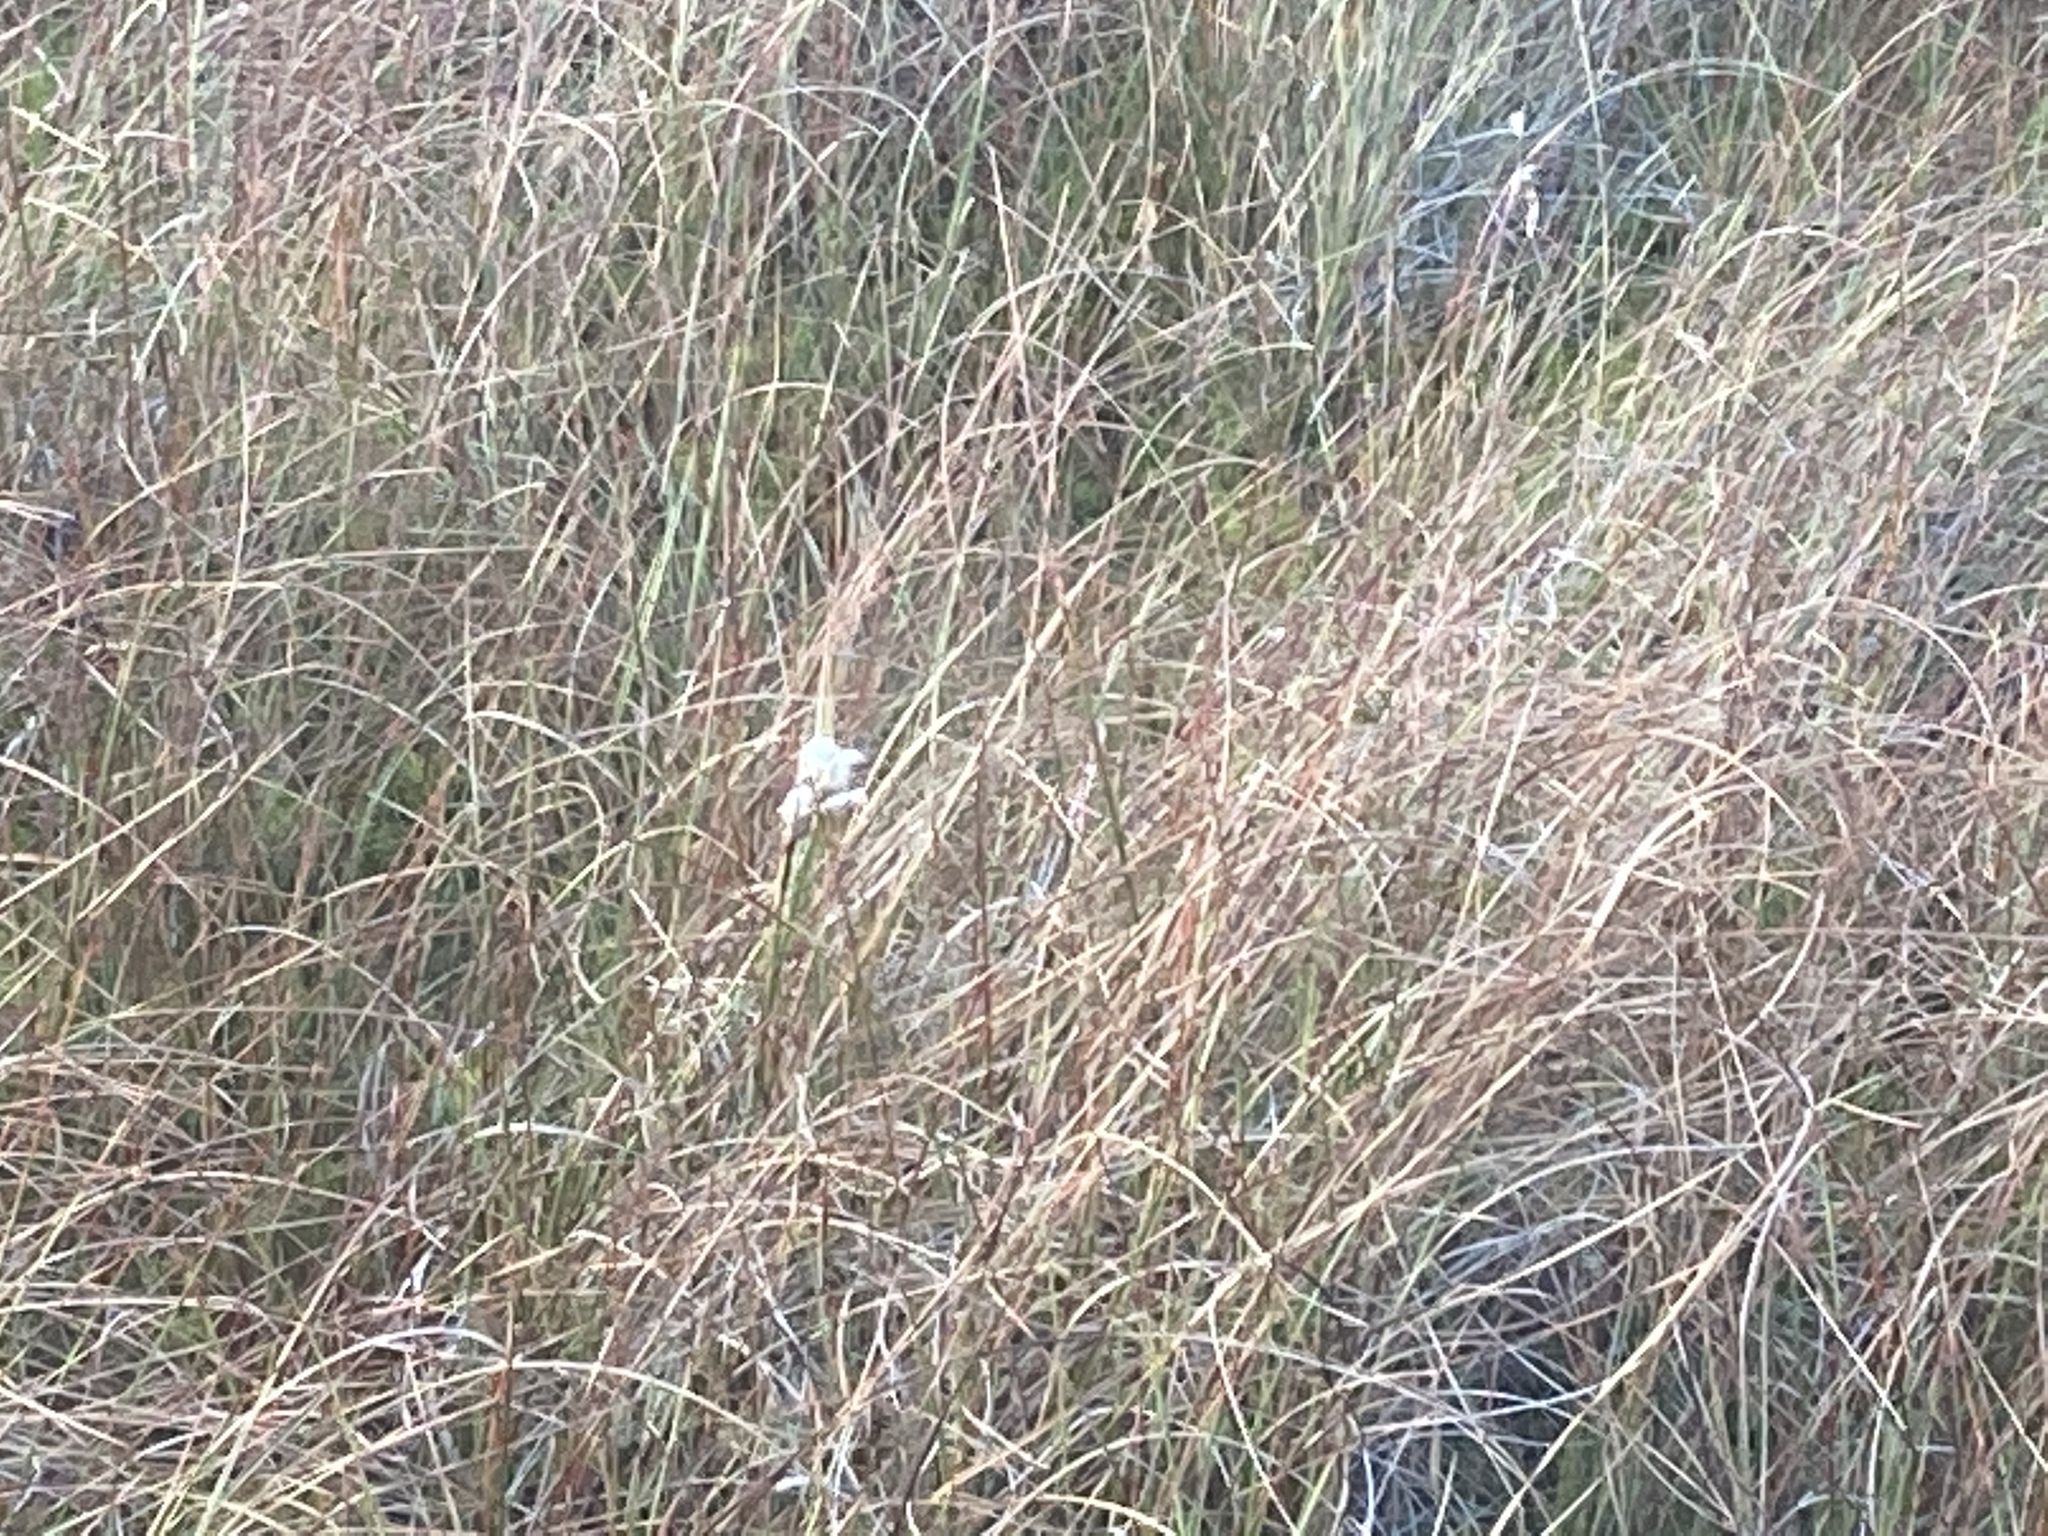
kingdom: Plantae
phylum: Tracheophyta
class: Liliopsida
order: Poales
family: Cyperaceae
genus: Eriophorum
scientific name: Eriophorum angustifolium
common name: Common cottongrass
